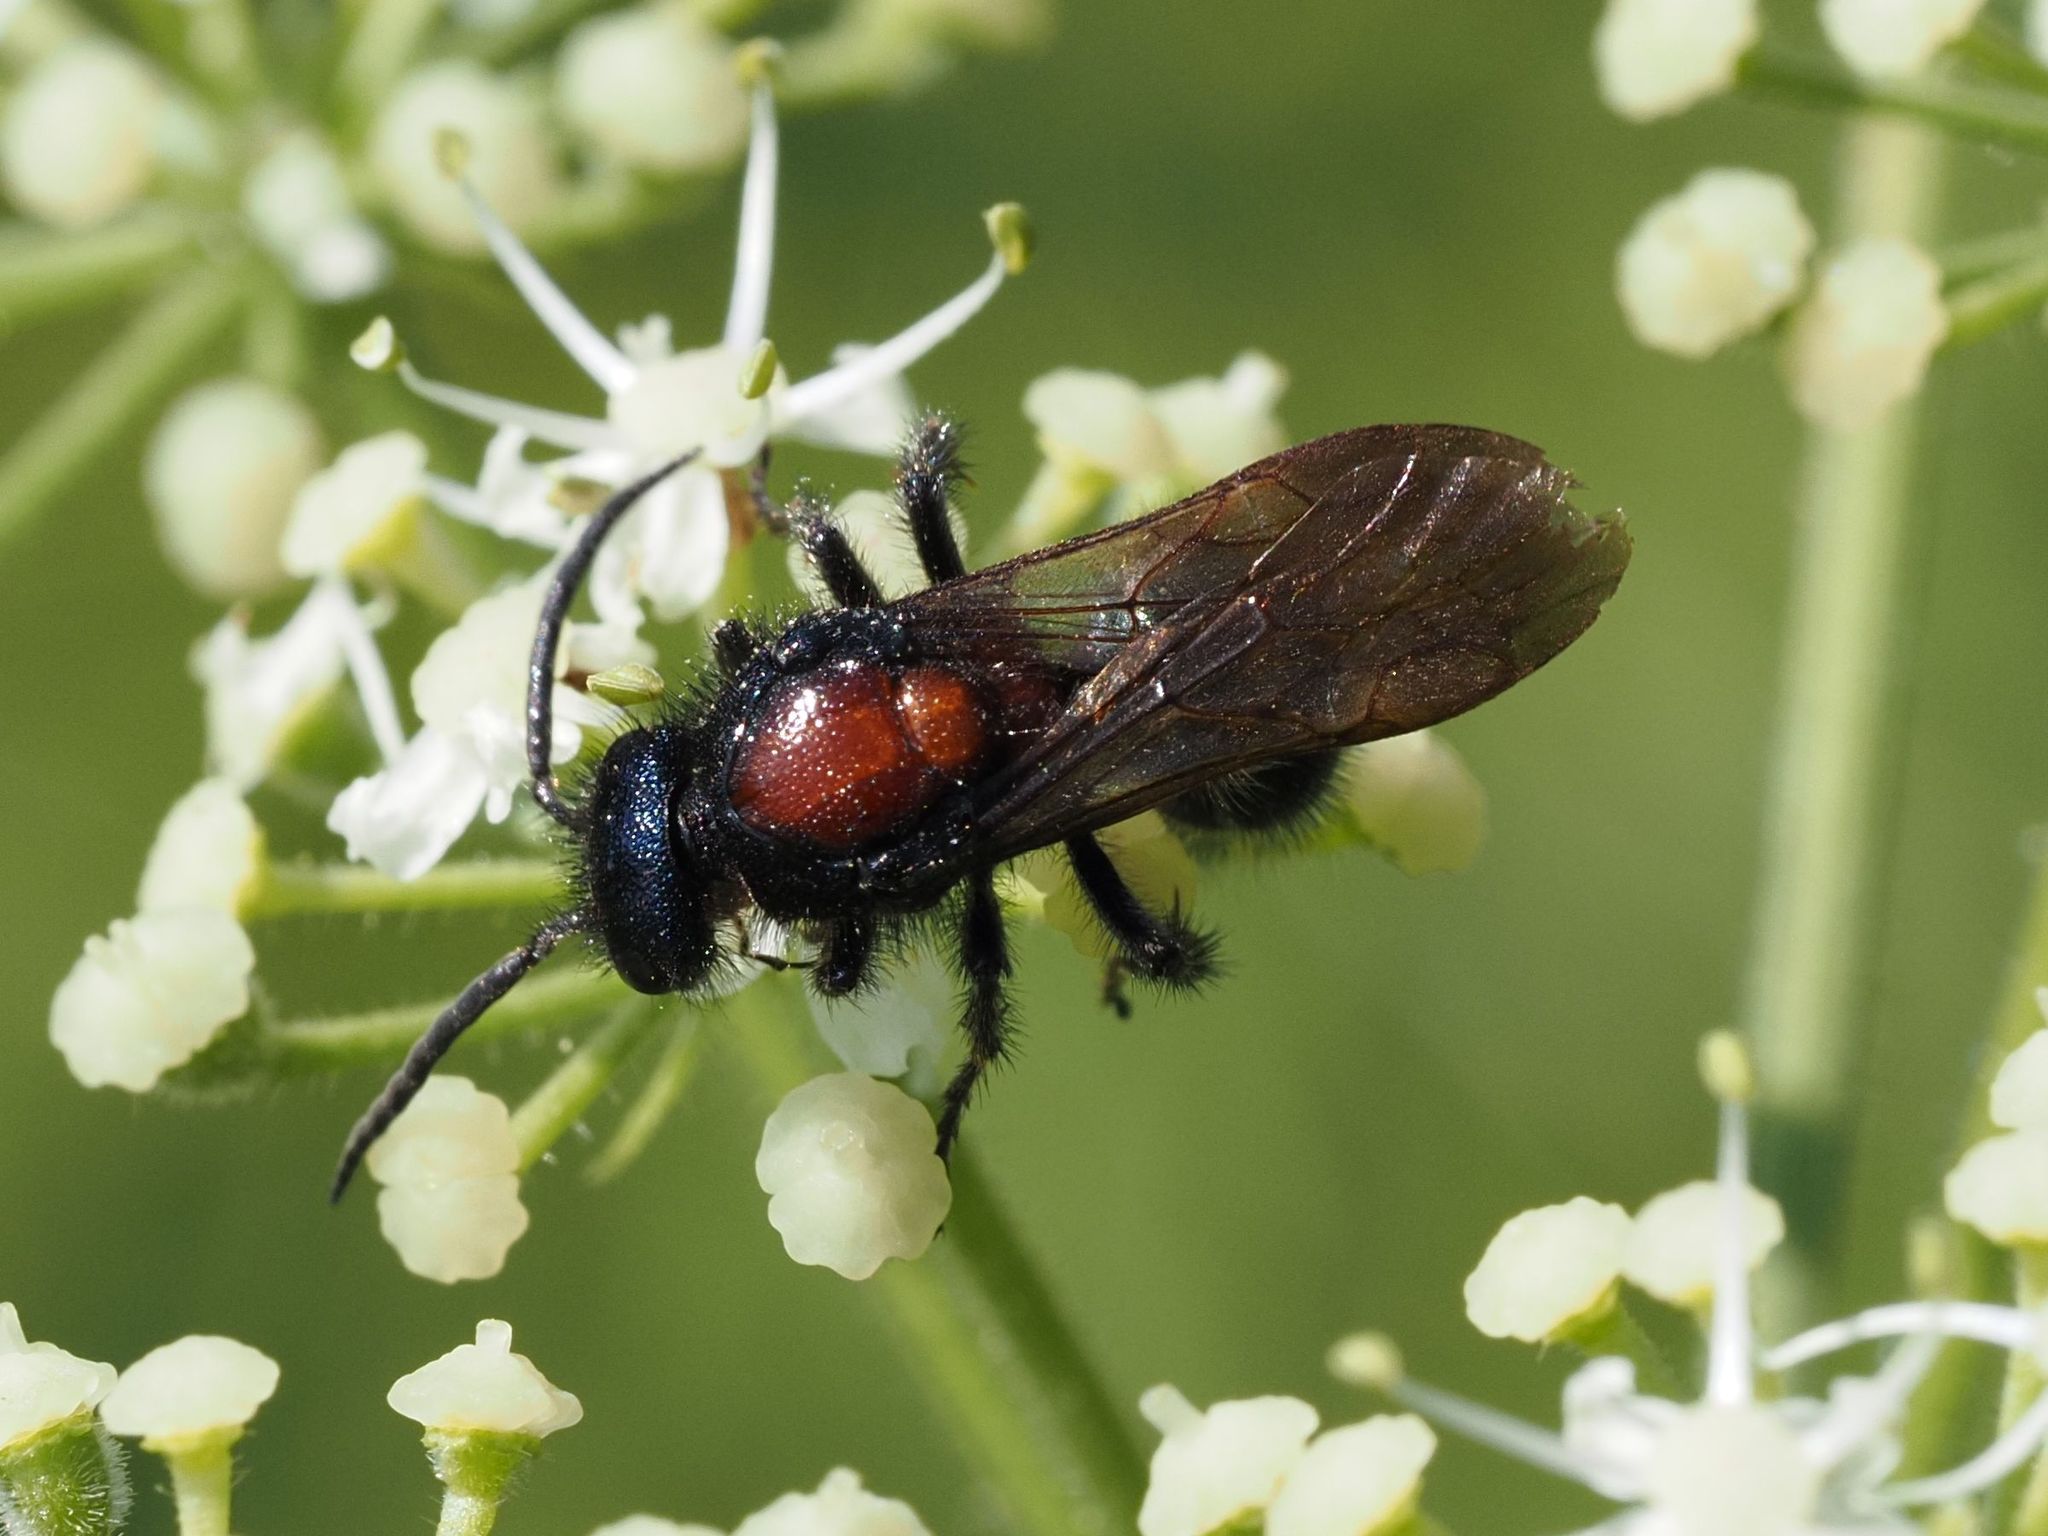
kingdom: Animalia
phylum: Arthropoda
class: Insecta
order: Hymenoptera
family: Mutillidae
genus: Mutilla
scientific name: Mutilla europaea
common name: Large velvet ant
